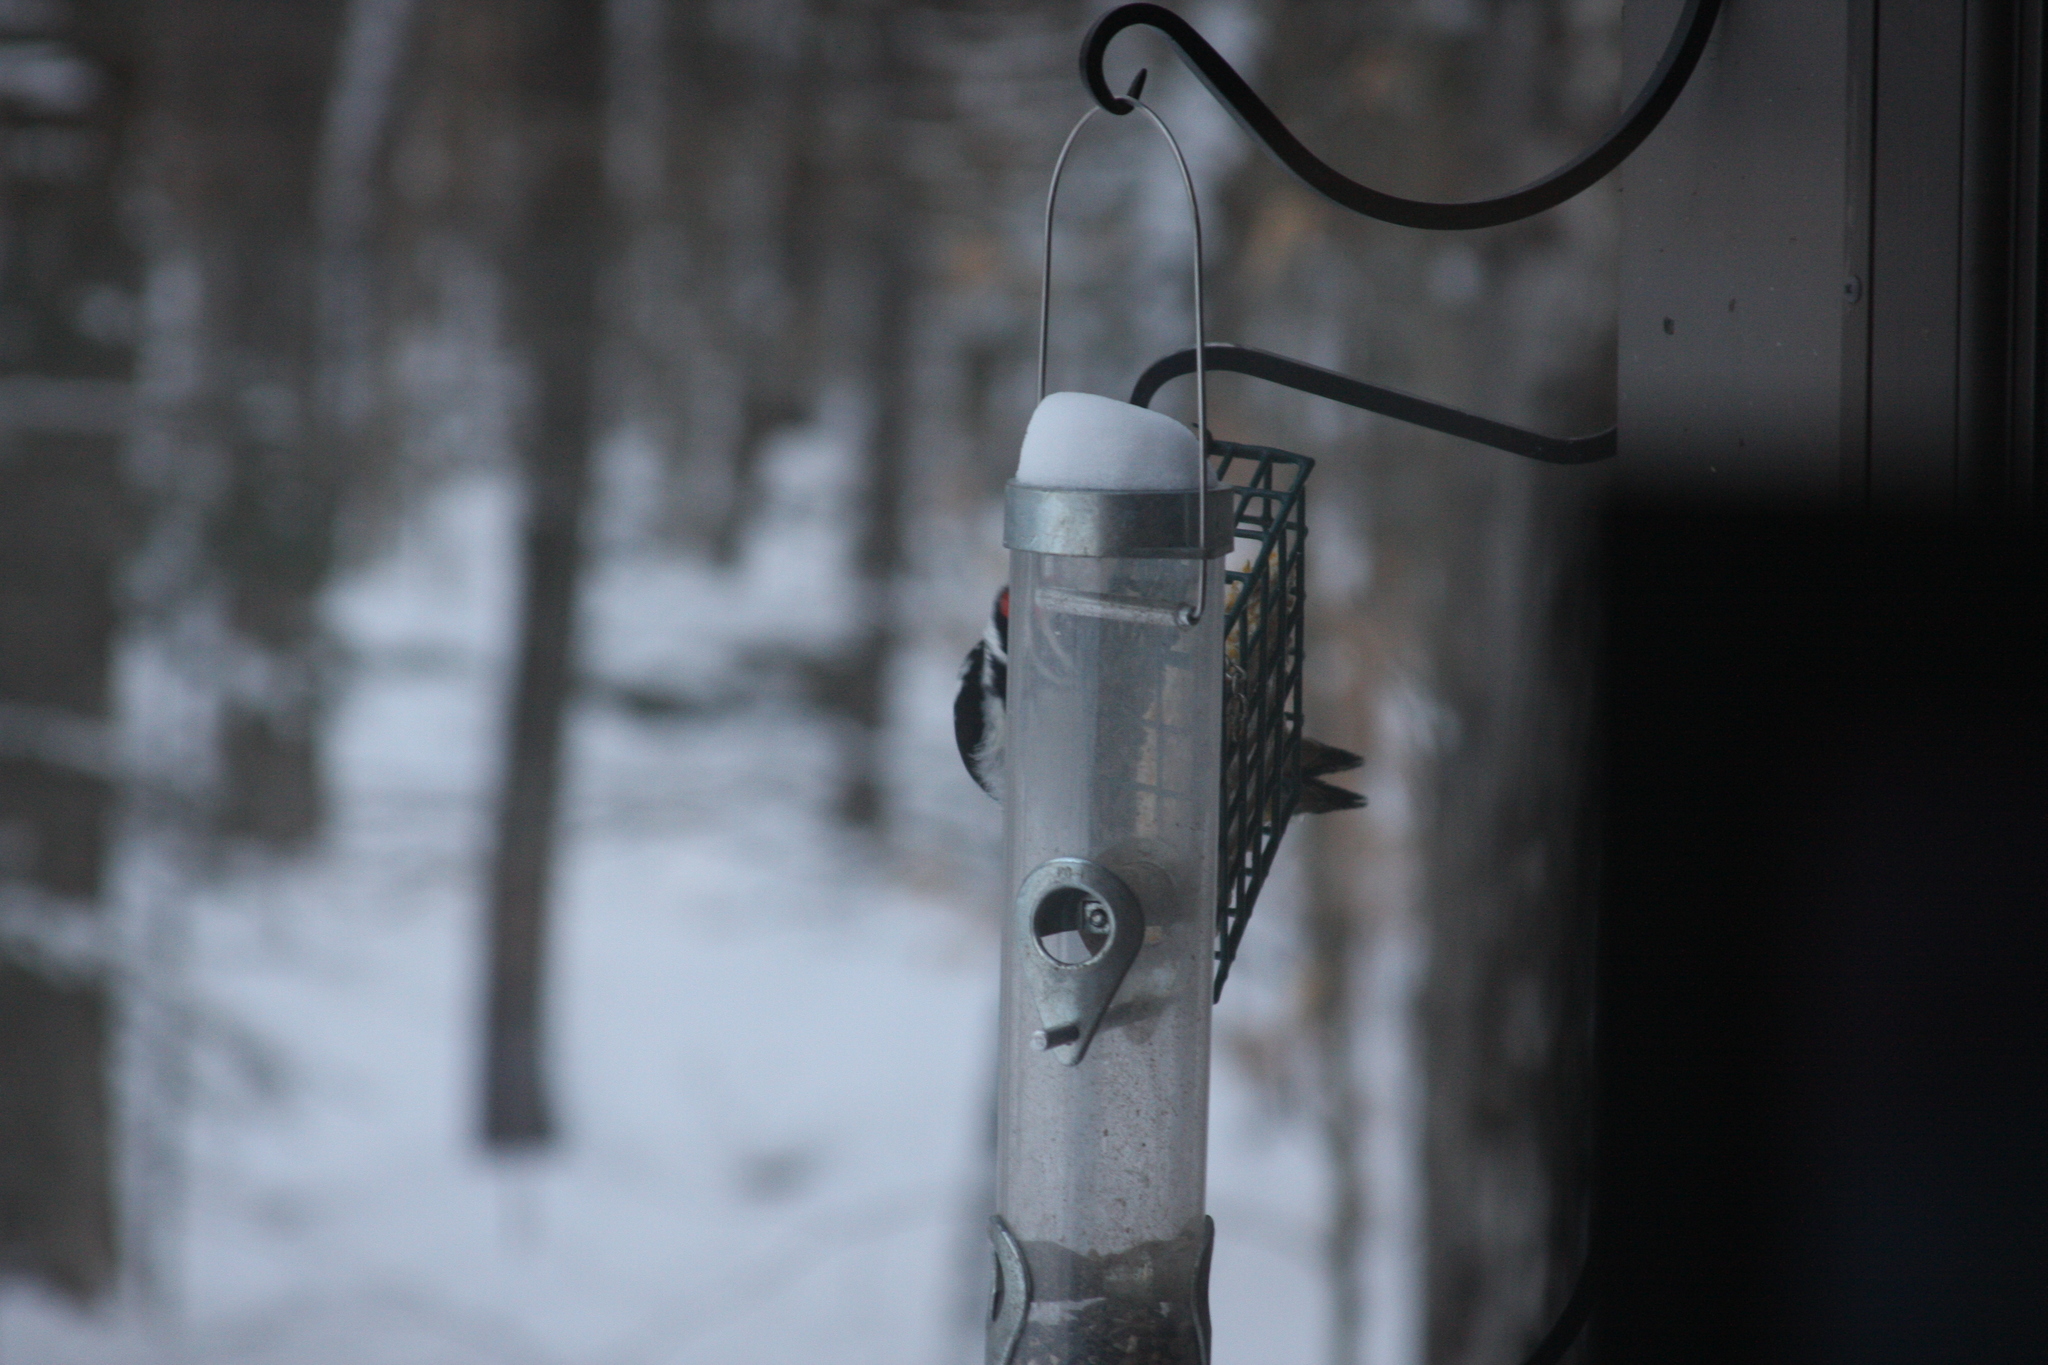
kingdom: Animalia
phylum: Chordata
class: Aves
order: Piciformes
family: Picidae
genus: Dryobates
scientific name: Dryobates pubescens
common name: Downy woodpecker
